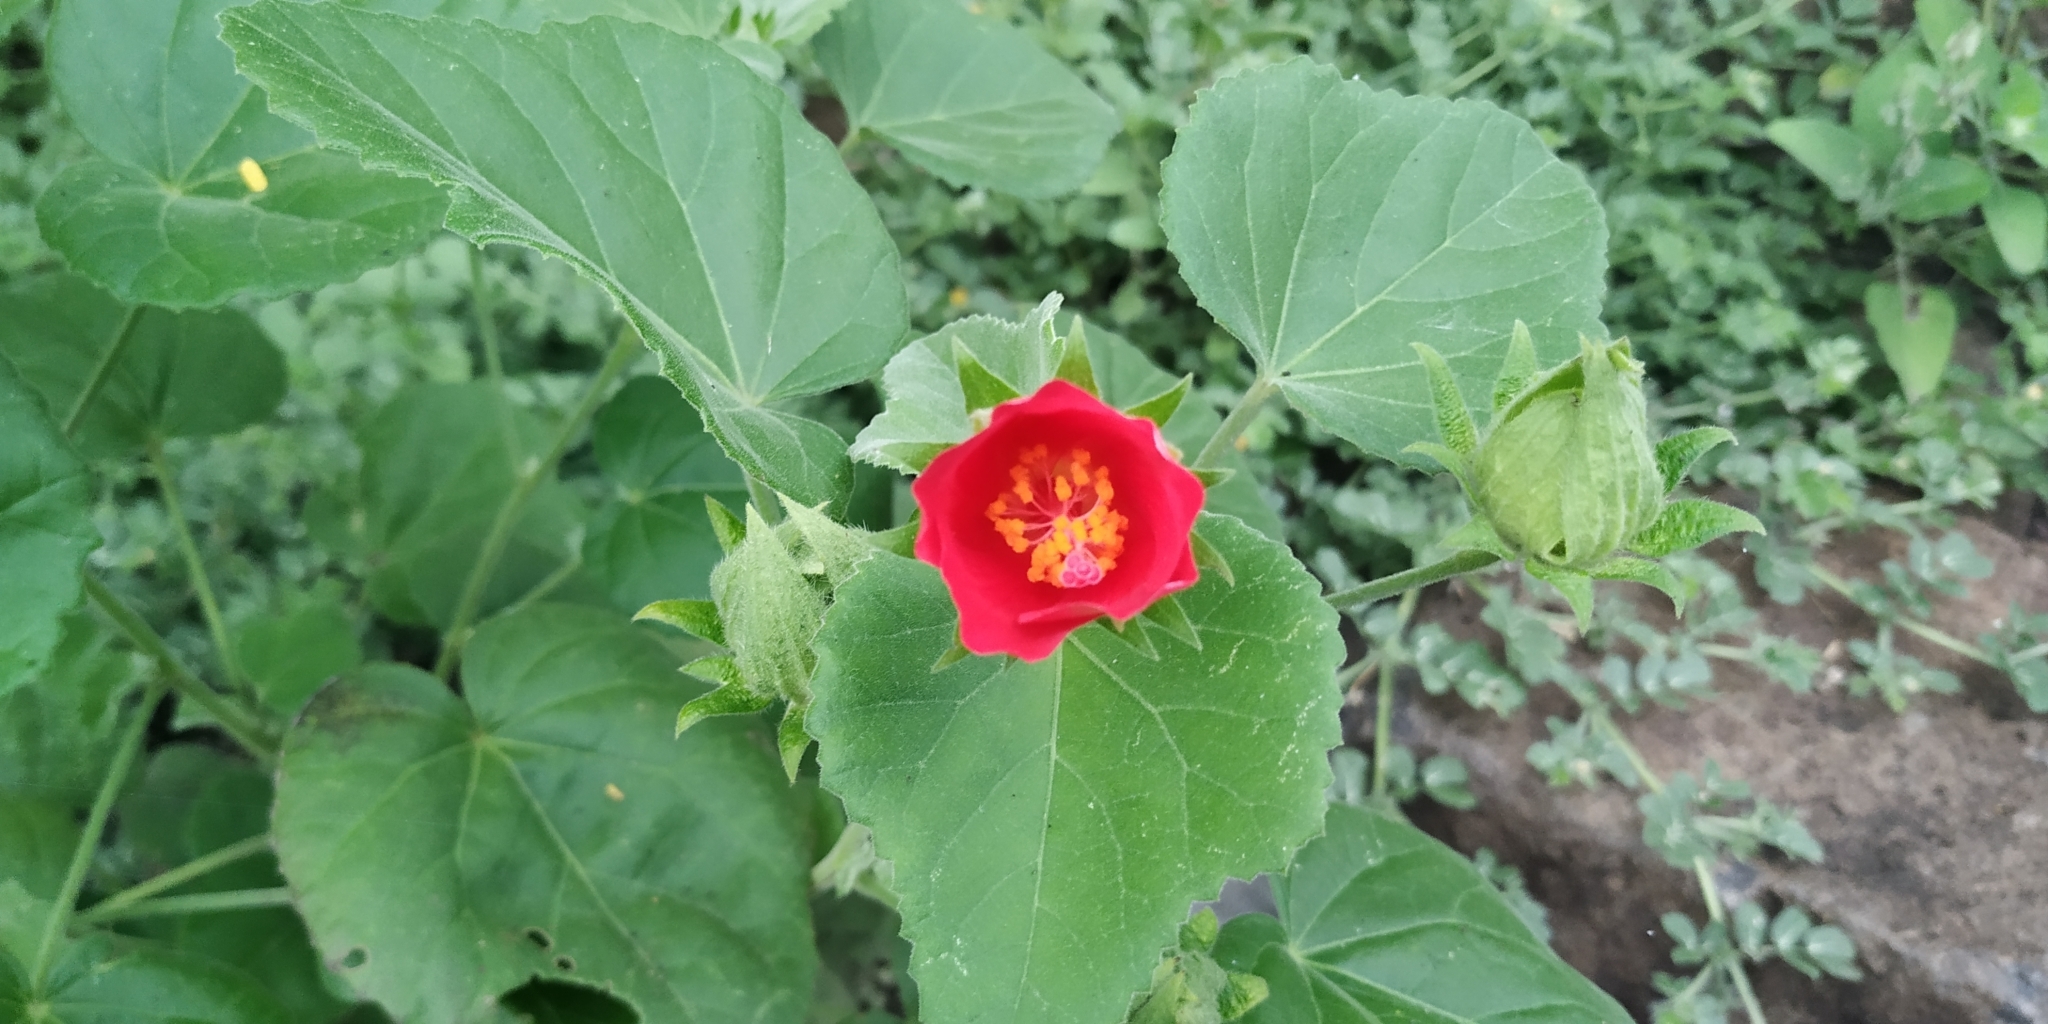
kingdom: Plantae
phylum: Tracheophyta
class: Magnoliopsida
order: Malvales
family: Malvaceae
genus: Hibiscus
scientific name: Hibiscus martianus
